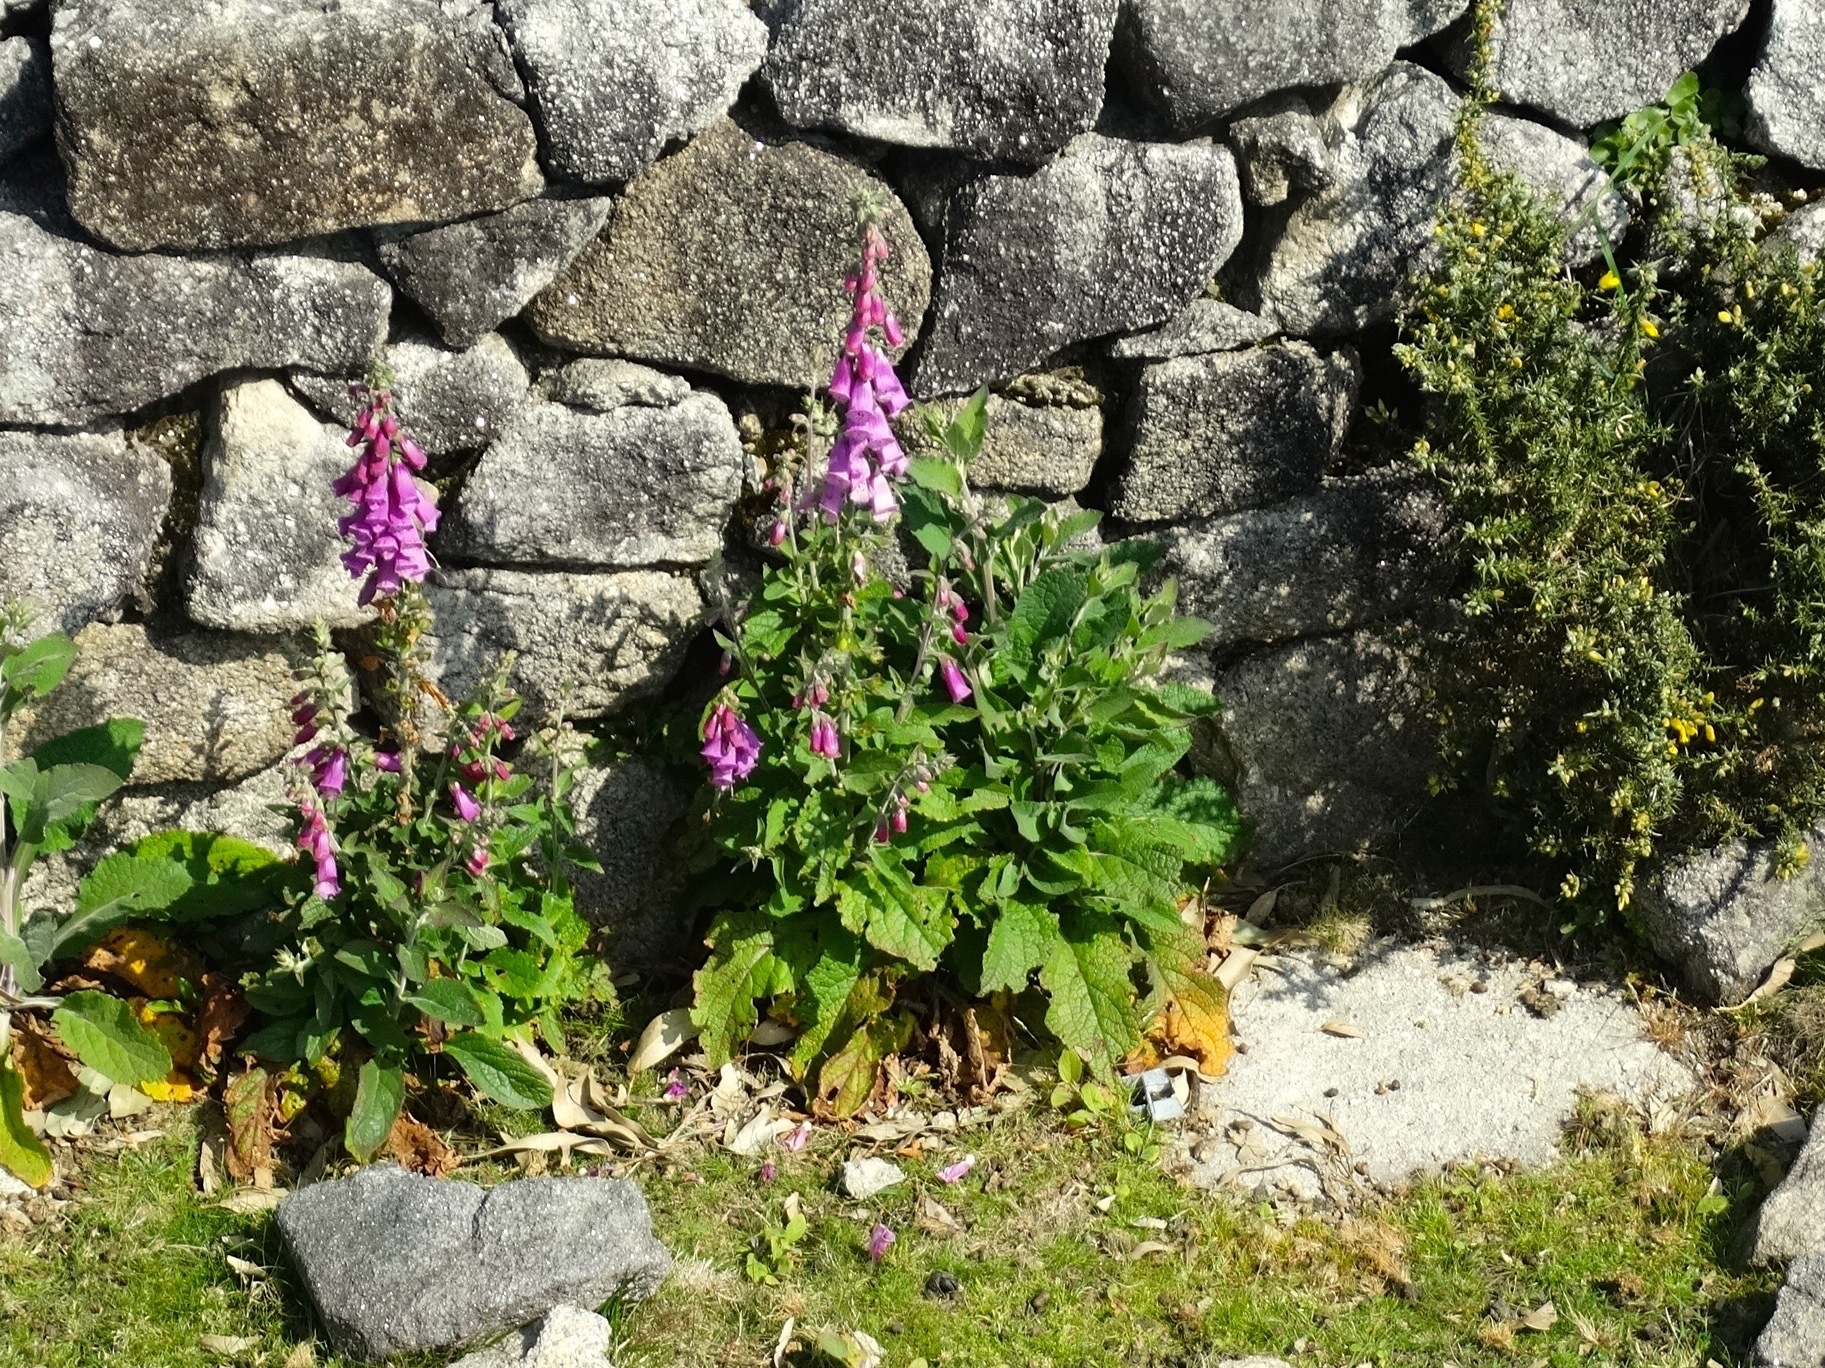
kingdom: Plantae
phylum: Tracheophyta
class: Magnoliopsida
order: Lamiales
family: Plantaginaceae
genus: Digitalis
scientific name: Digitalis purpurea
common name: Foxglove
